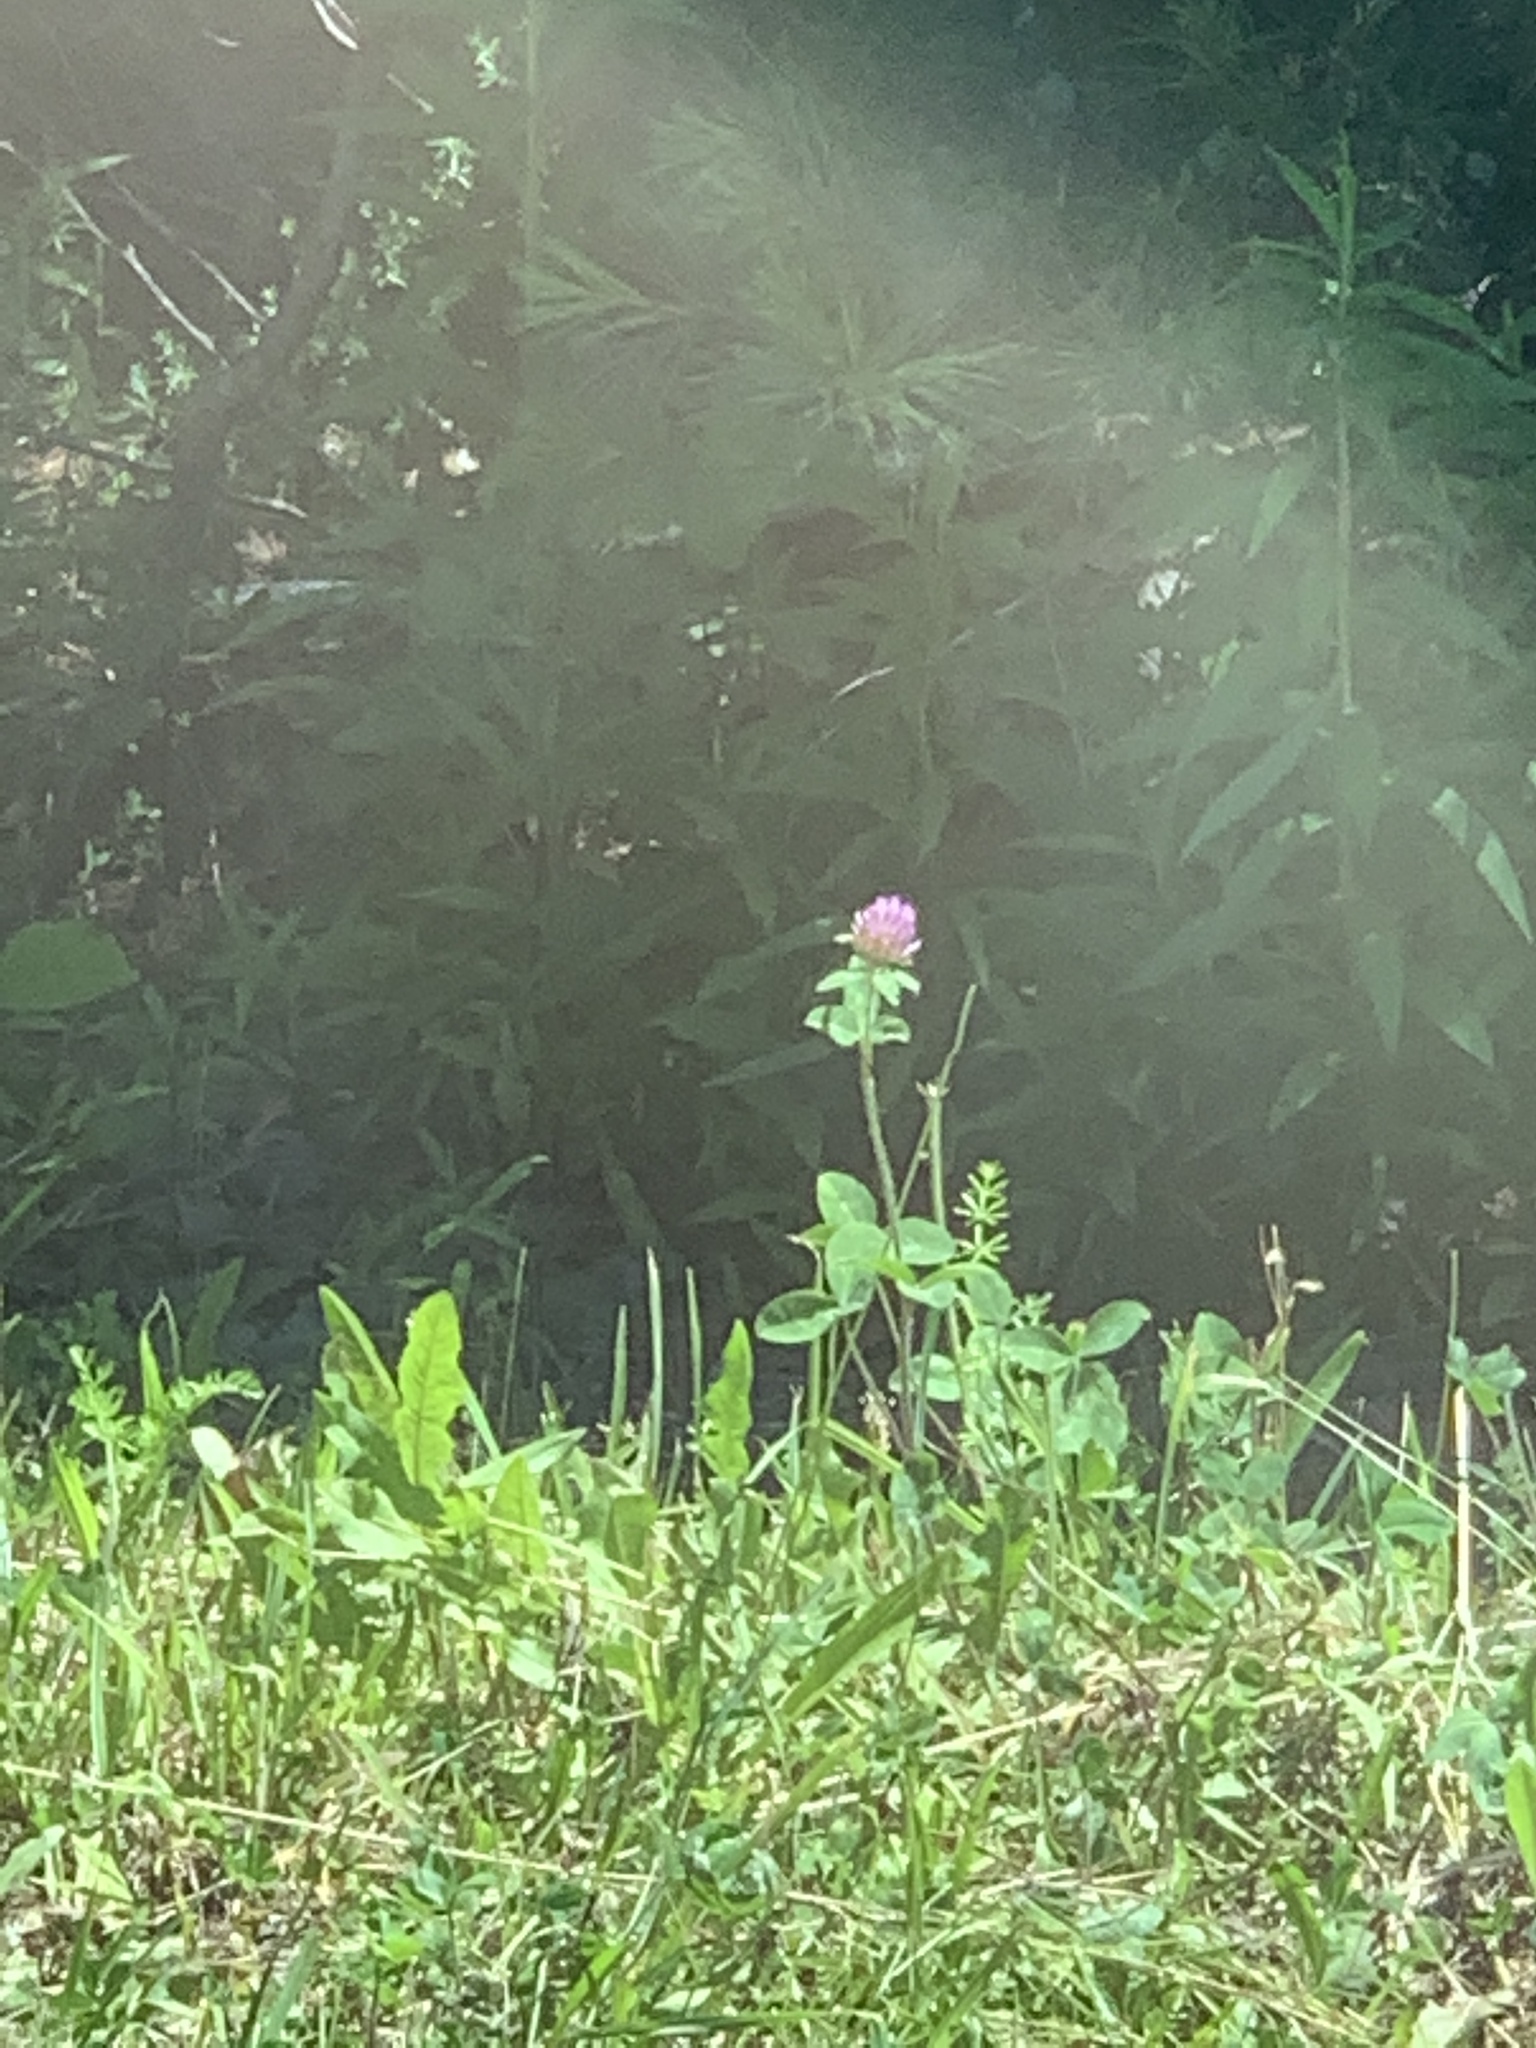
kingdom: Plantae
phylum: Tracheophyta
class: Magnoliopsida
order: Fabales
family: Fabaceae
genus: Trifolium
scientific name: Trifolium pratense
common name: Red clover
